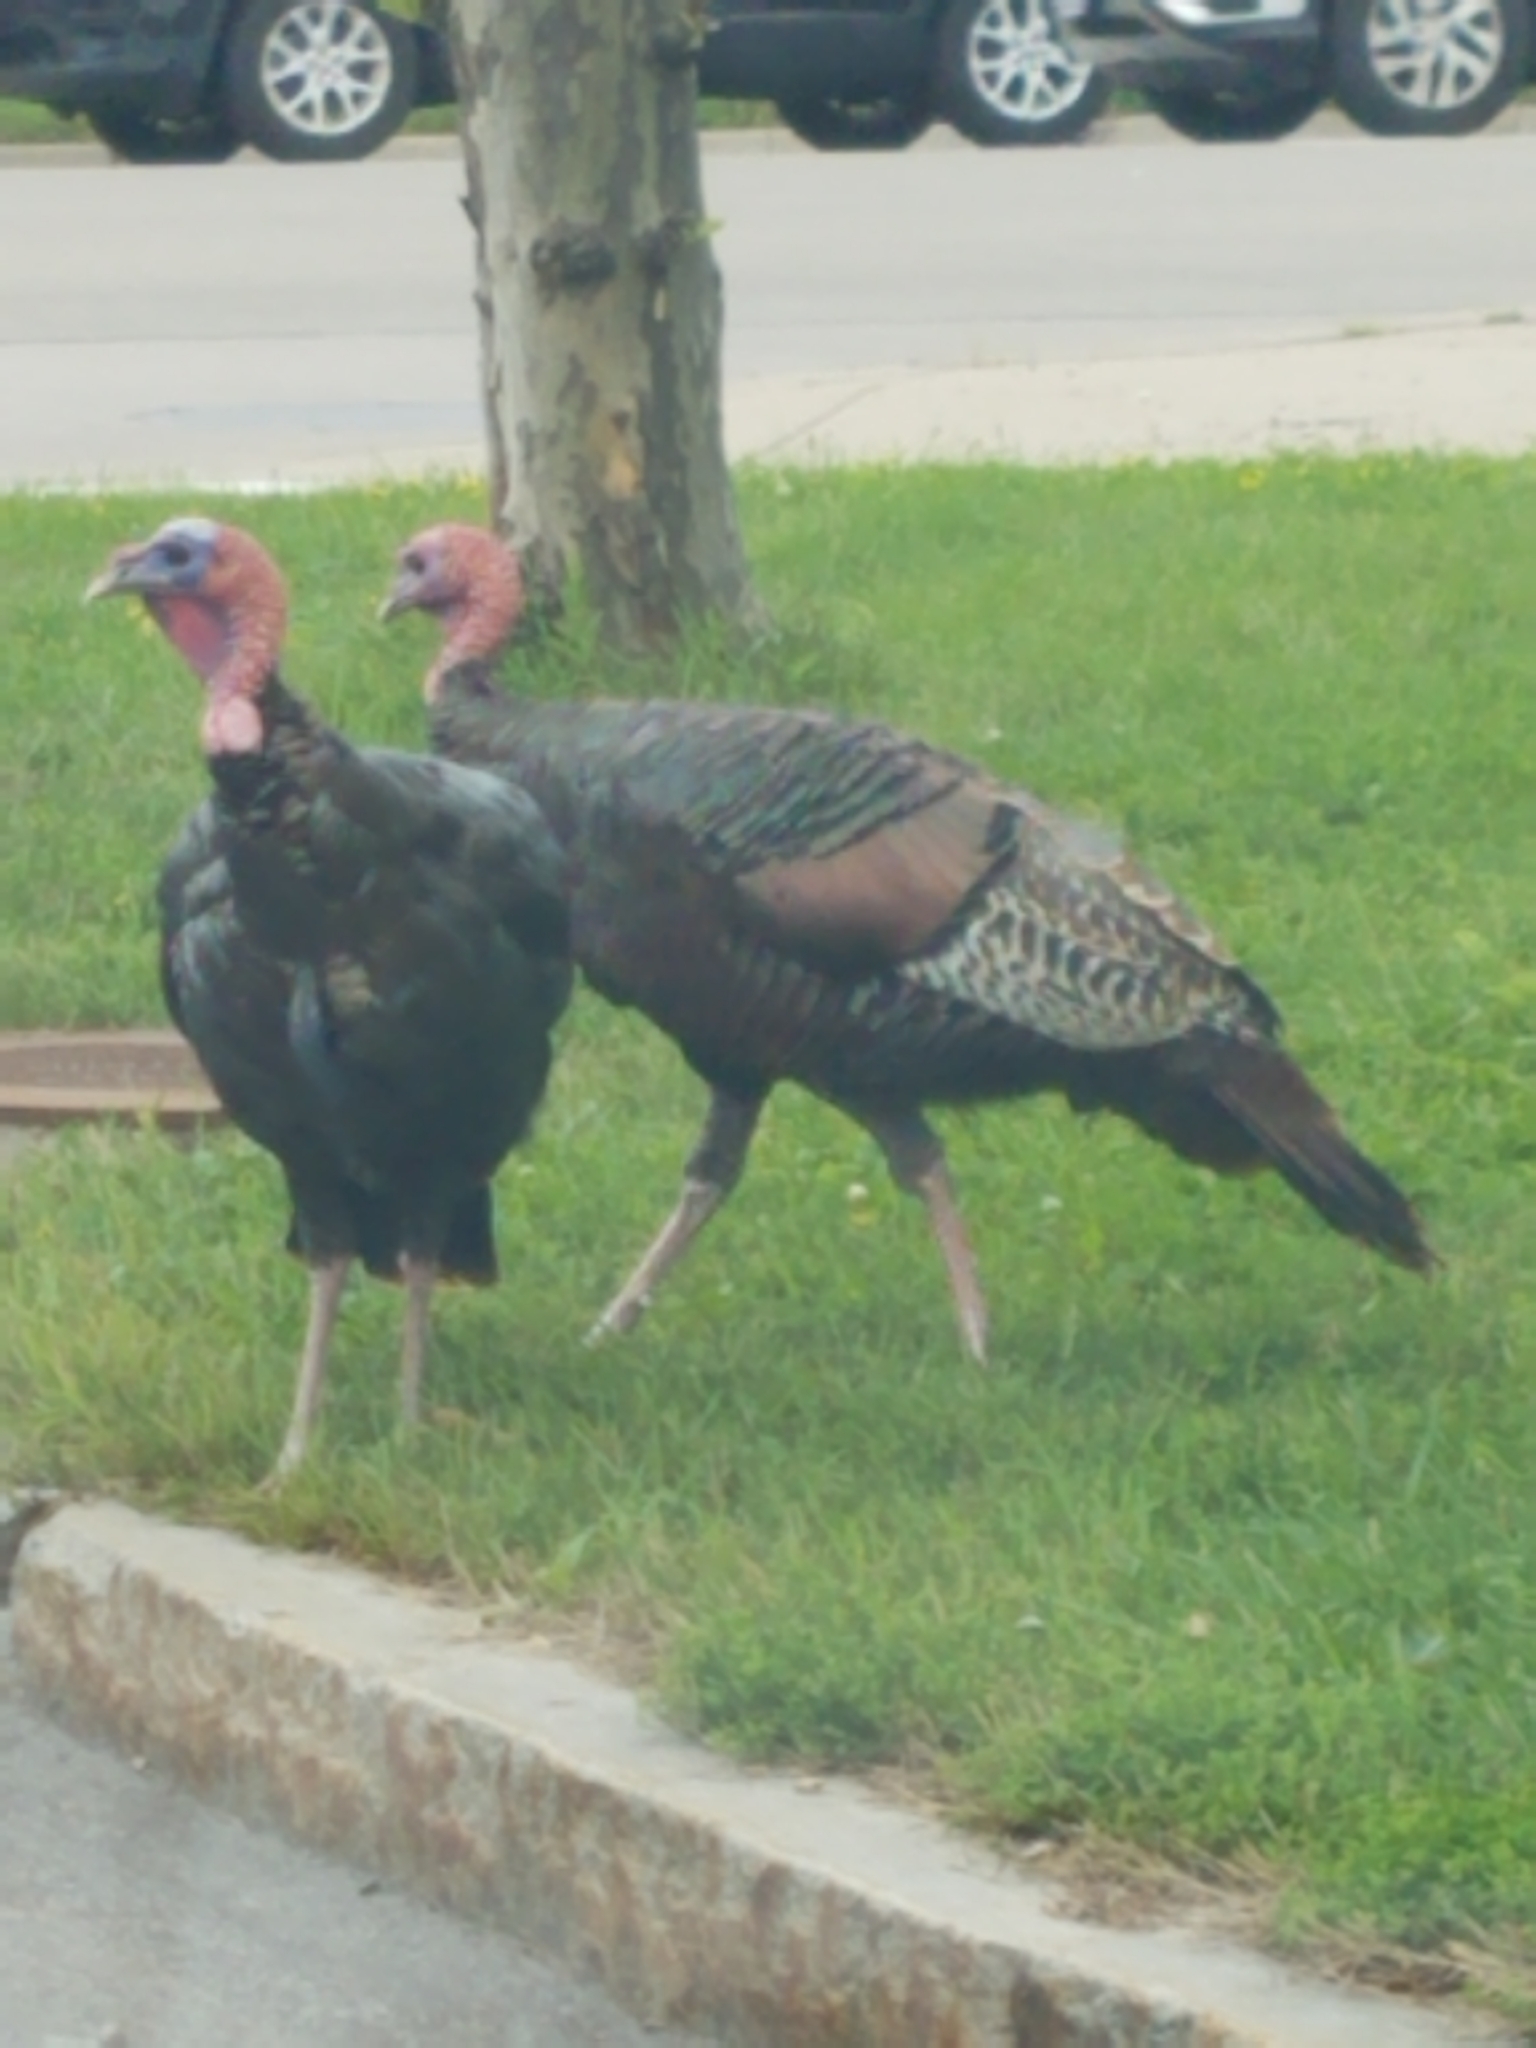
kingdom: Animalia
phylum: Chordata
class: Aves
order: Galliformes
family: Phasianidae
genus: Meleagris
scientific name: Meleagris gallopavo
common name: Wild turkey
